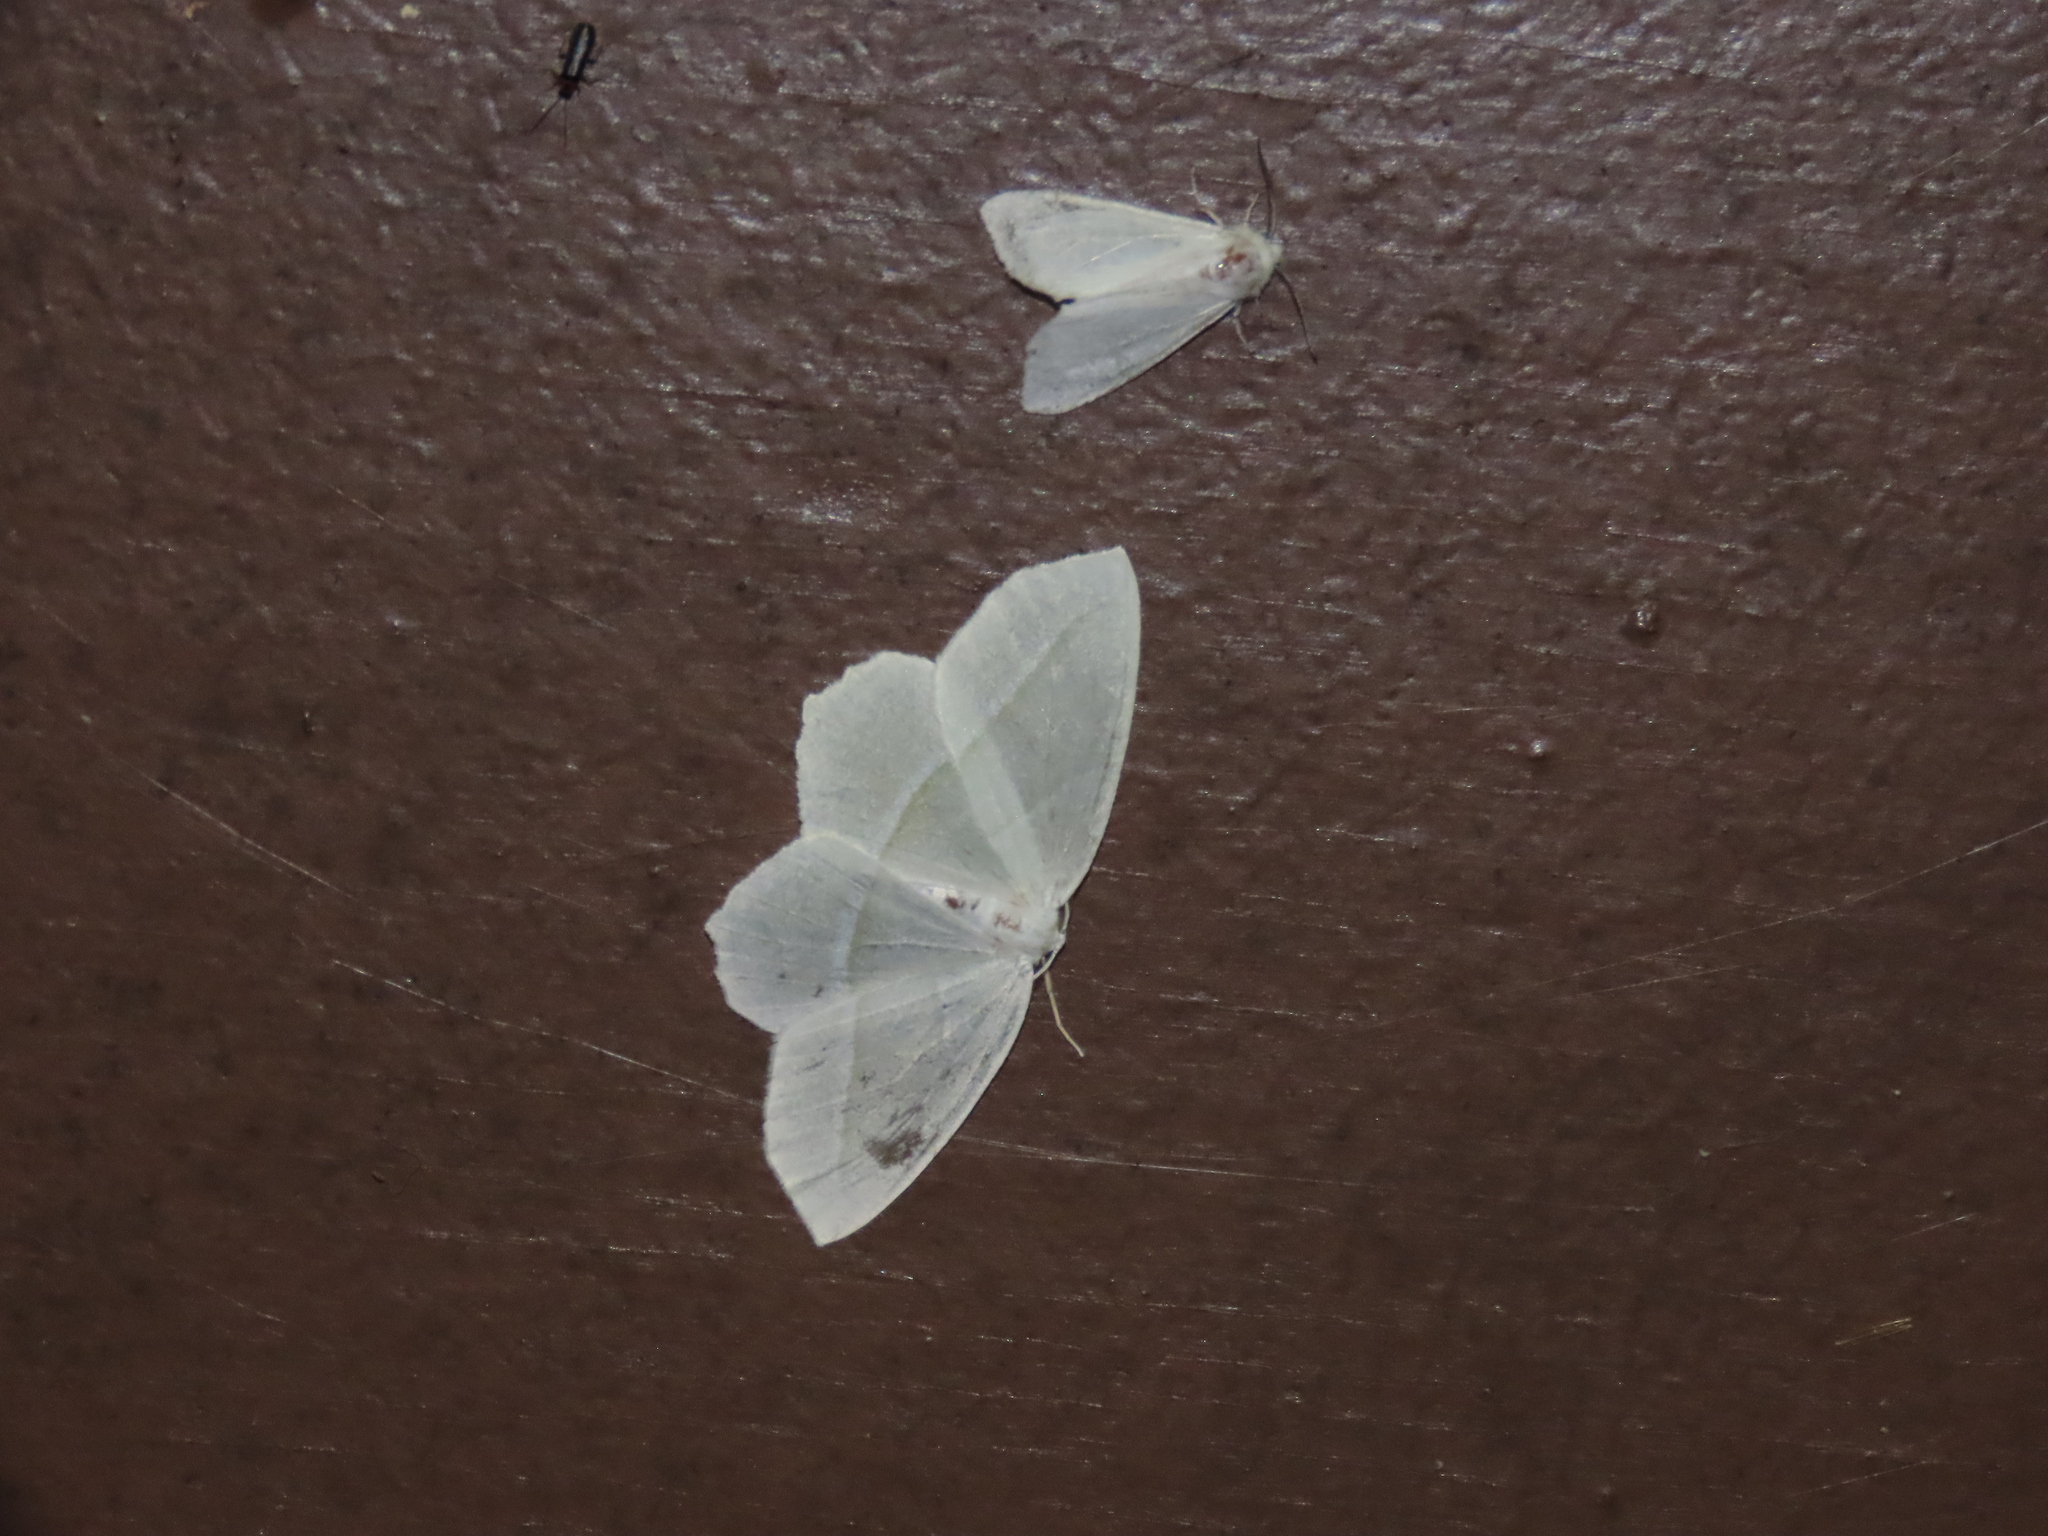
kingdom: Animalia
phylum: Arthropoda
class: Insecta
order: Lepidoptera
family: Geometridae
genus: Campaea
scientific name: Campaea perlata
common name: Fringed looper
